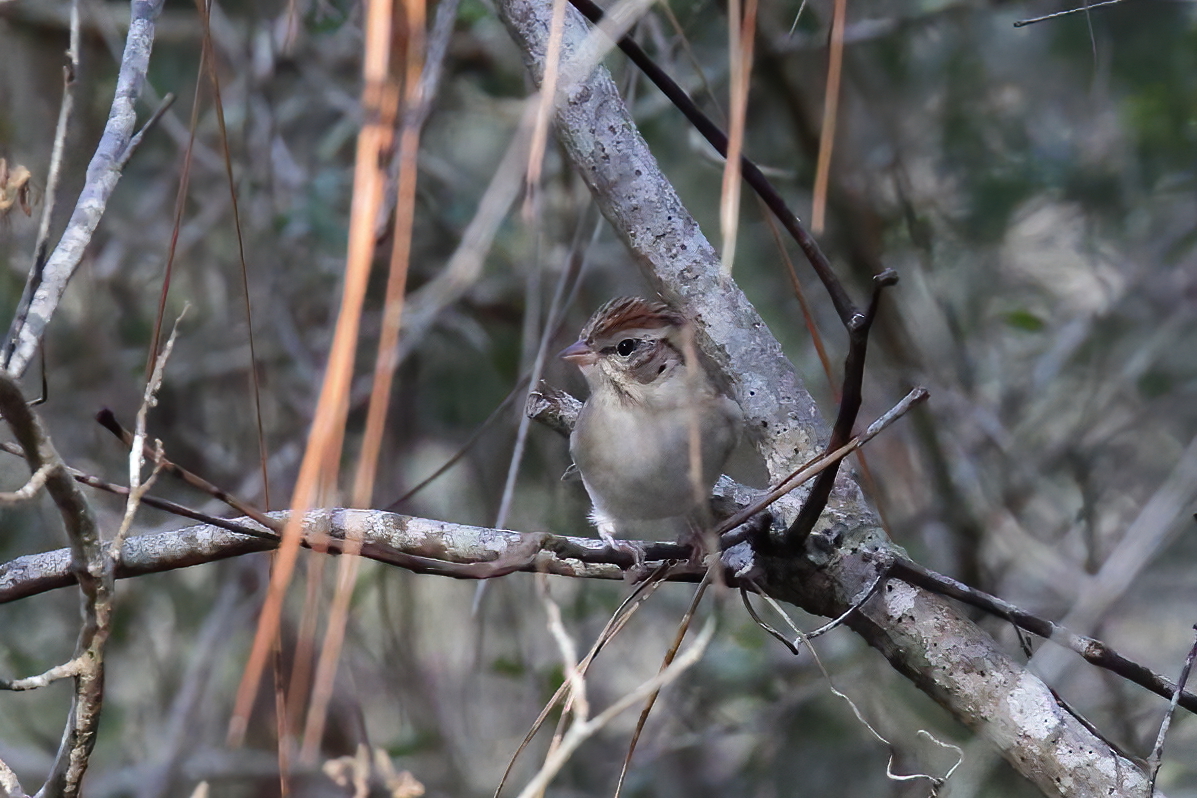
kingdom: Animalia
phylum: Chordata
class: Aves
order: Passeriformes
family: Passerellidae
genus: Spizella
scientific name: Spizella passerina
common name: Chipping sparrow
